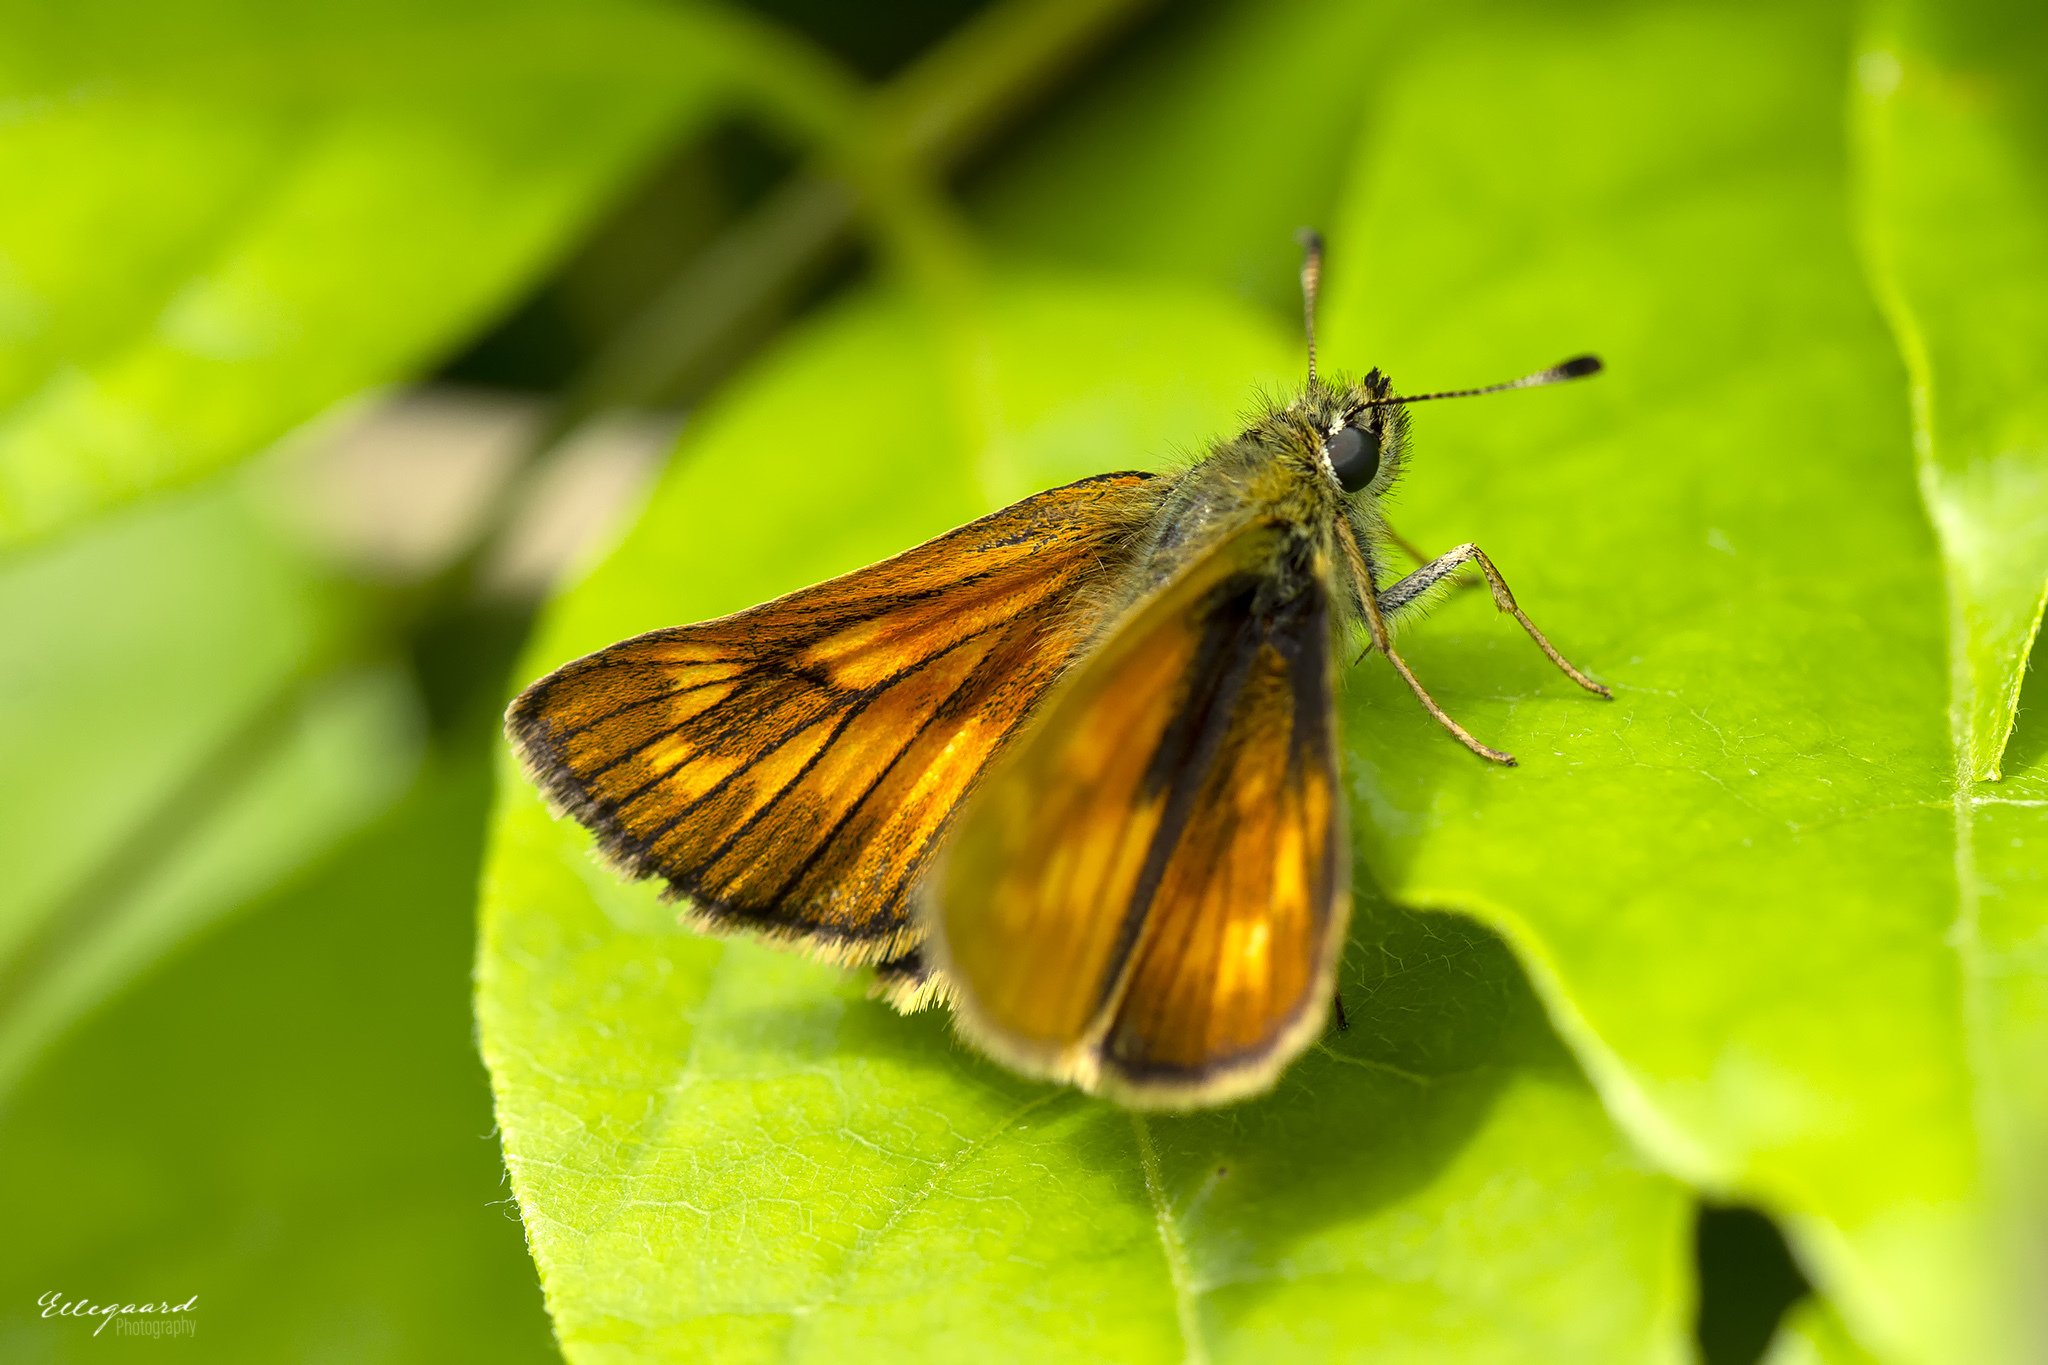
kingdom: Animalia
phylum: Arthropoda
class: Insecta
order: Lepidoptera
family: Hesperiidae
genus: Ochlodes
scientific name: Ochlodes venata
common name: Large skipper
